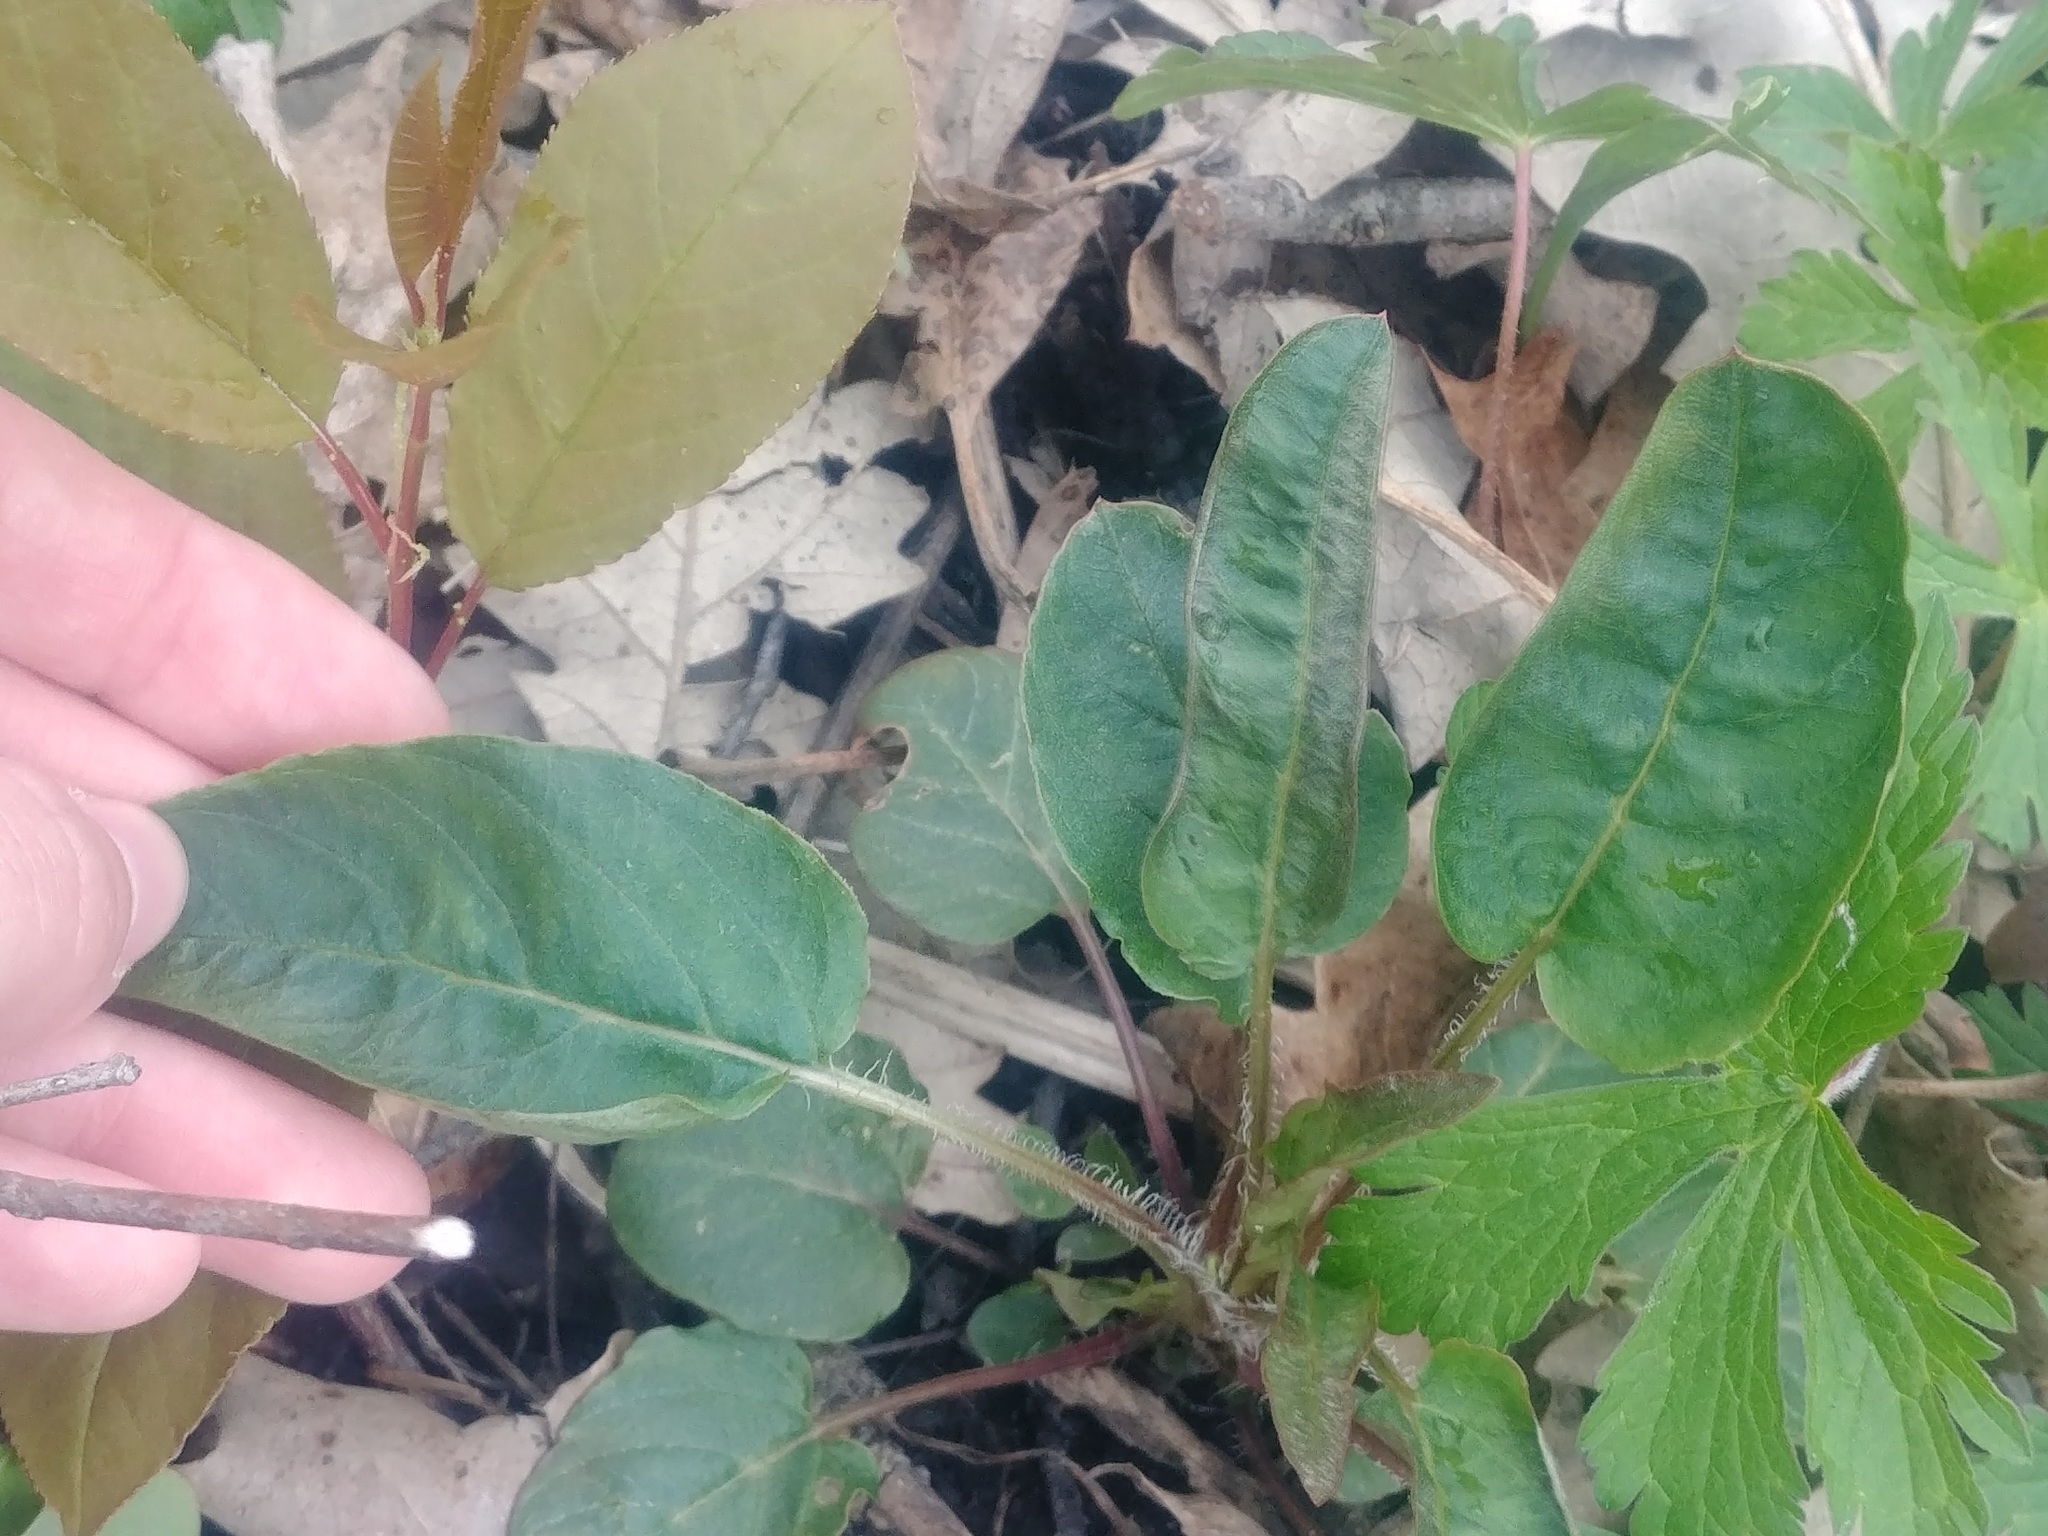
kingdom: Plantae
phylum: Tracheophyta
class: Magnoliopsida
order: Ericales
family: Primulaceae
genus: Lysimachia
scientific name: Lysimachia ciliata
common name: Fringed loosestrife
